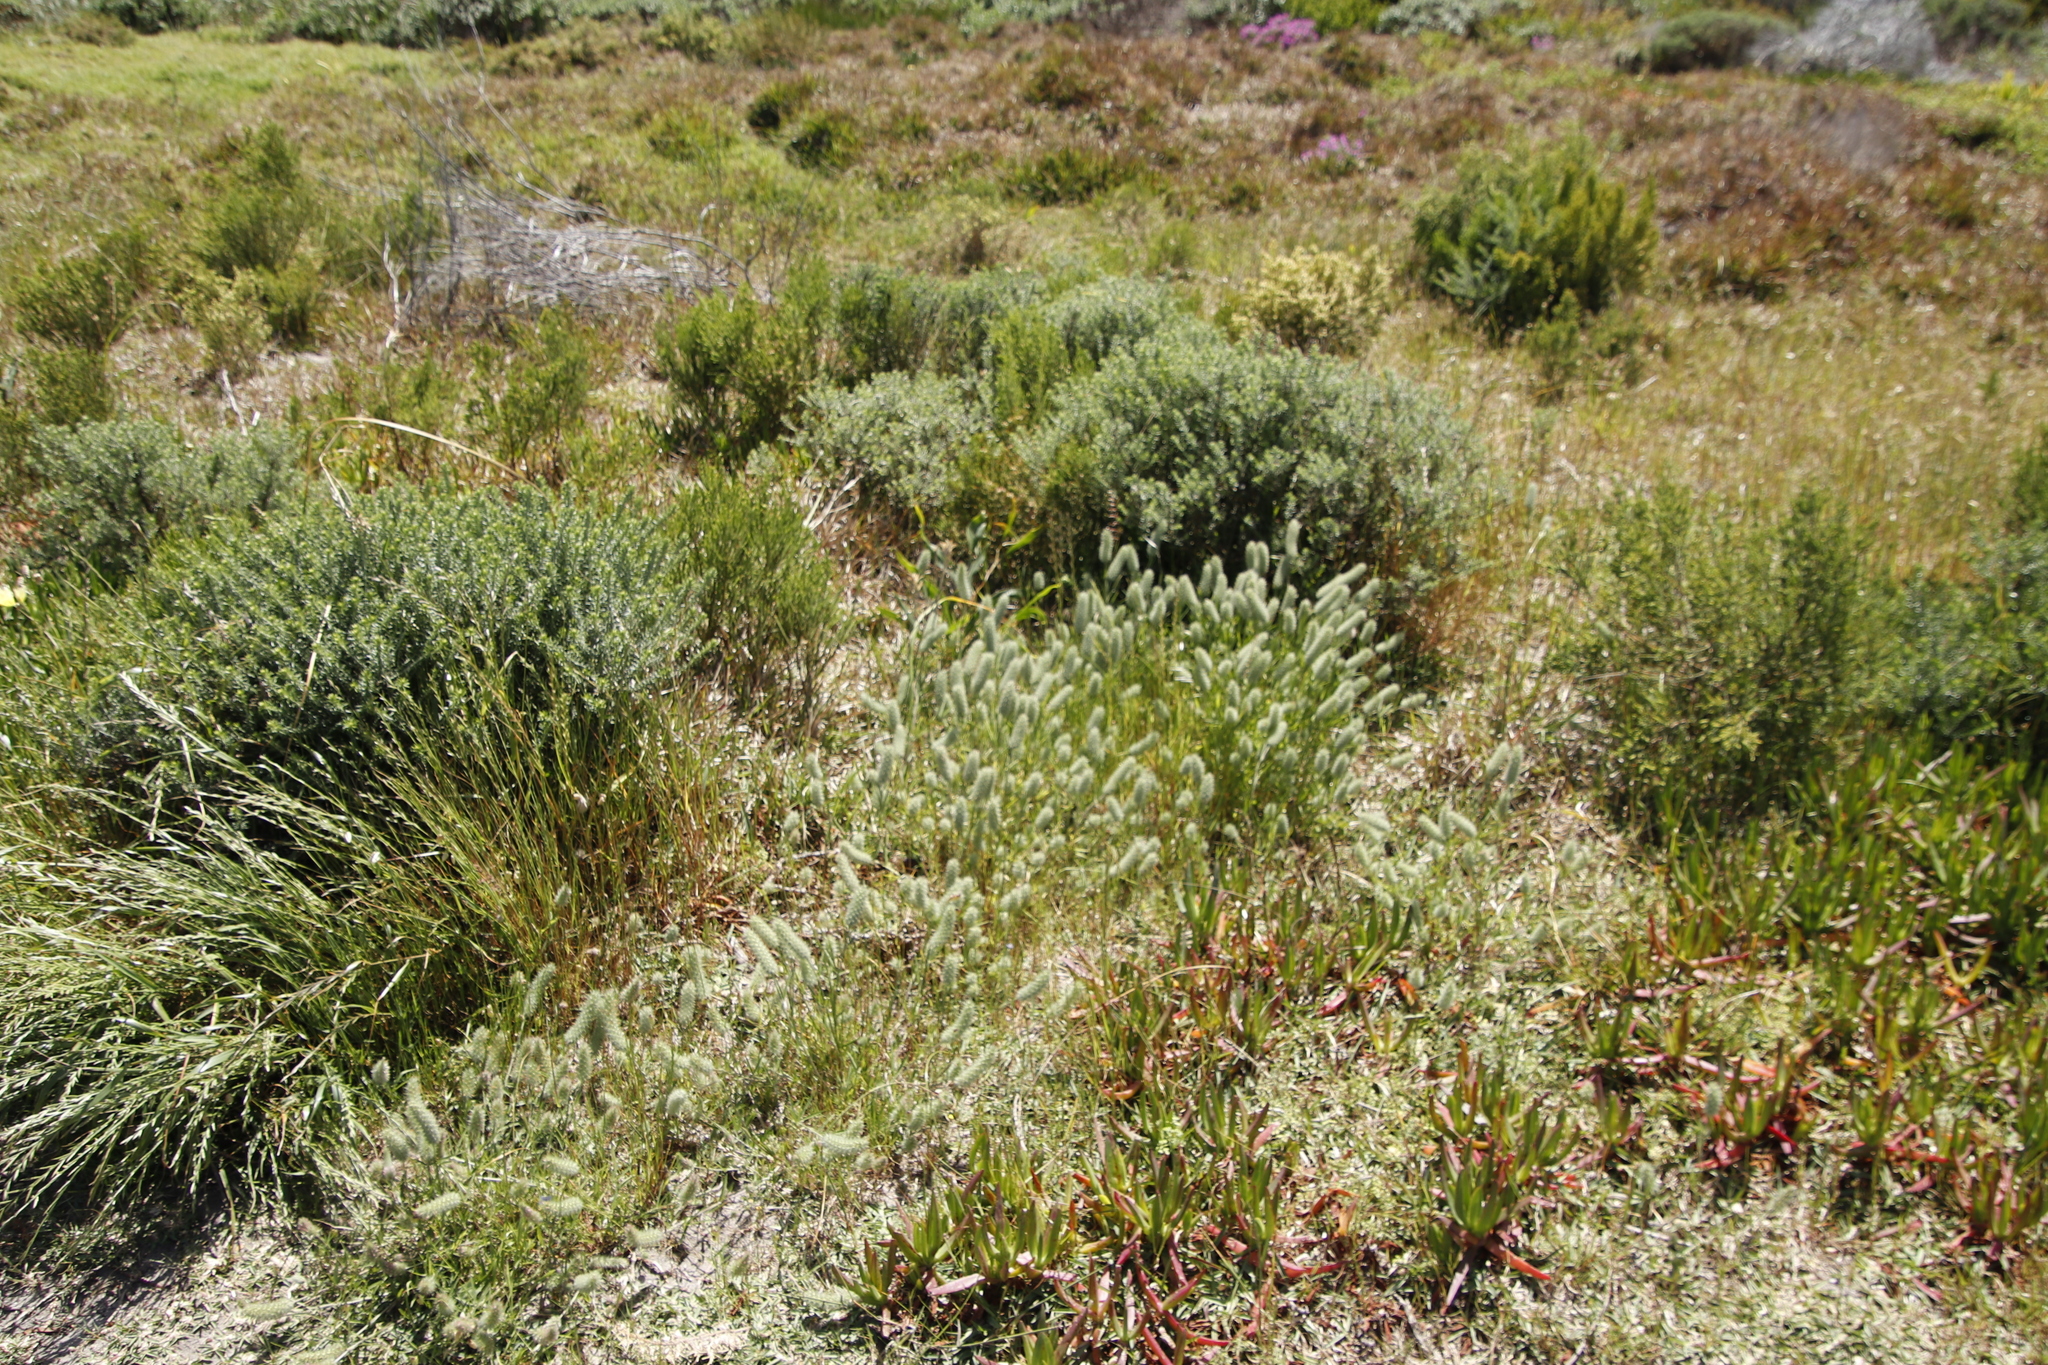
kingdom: Plantae
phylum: Tracheophyta
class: Magnoliopsida
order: Fabales
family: Fabaceae
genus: Trifolium
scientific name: Trifolium angustifolium
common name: Narrow clover
